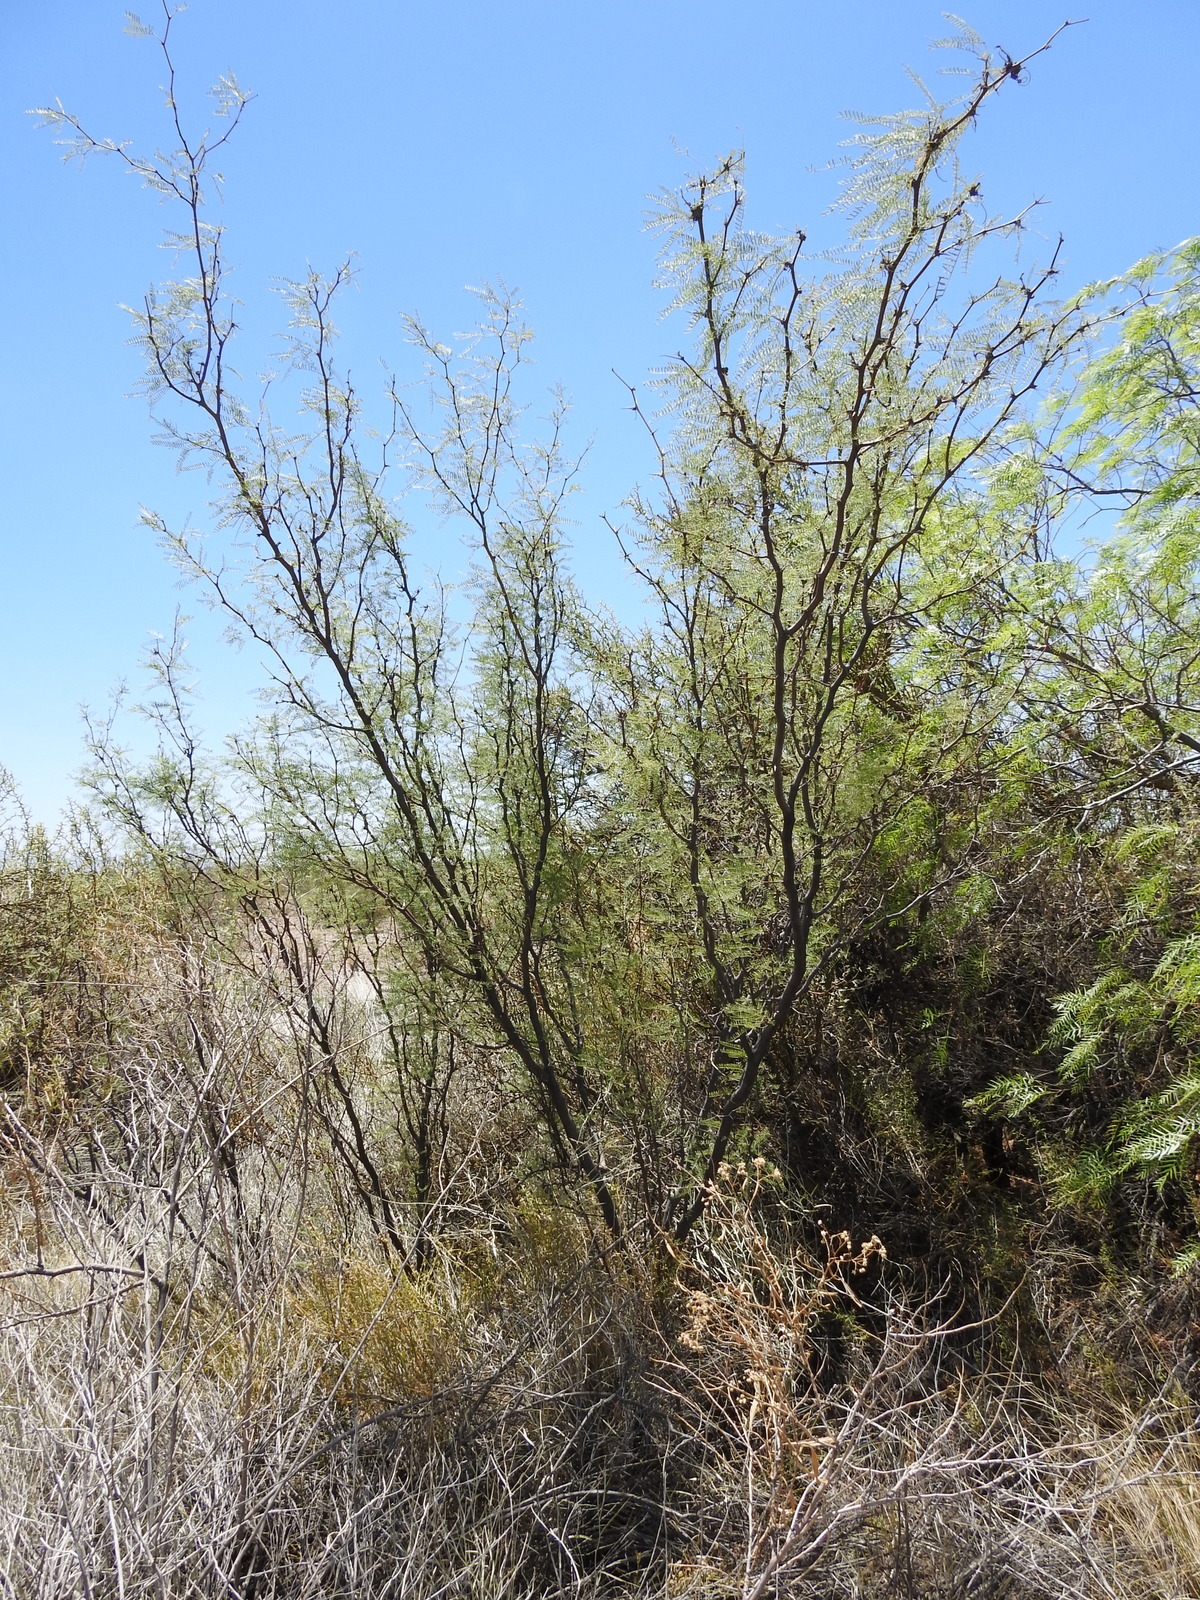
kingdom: Plantae
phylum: Tracheophyta
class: Magnoliopsida
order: Fabales
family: Fabaceae
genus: Prosopis
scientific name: Prosopis flexuosa
